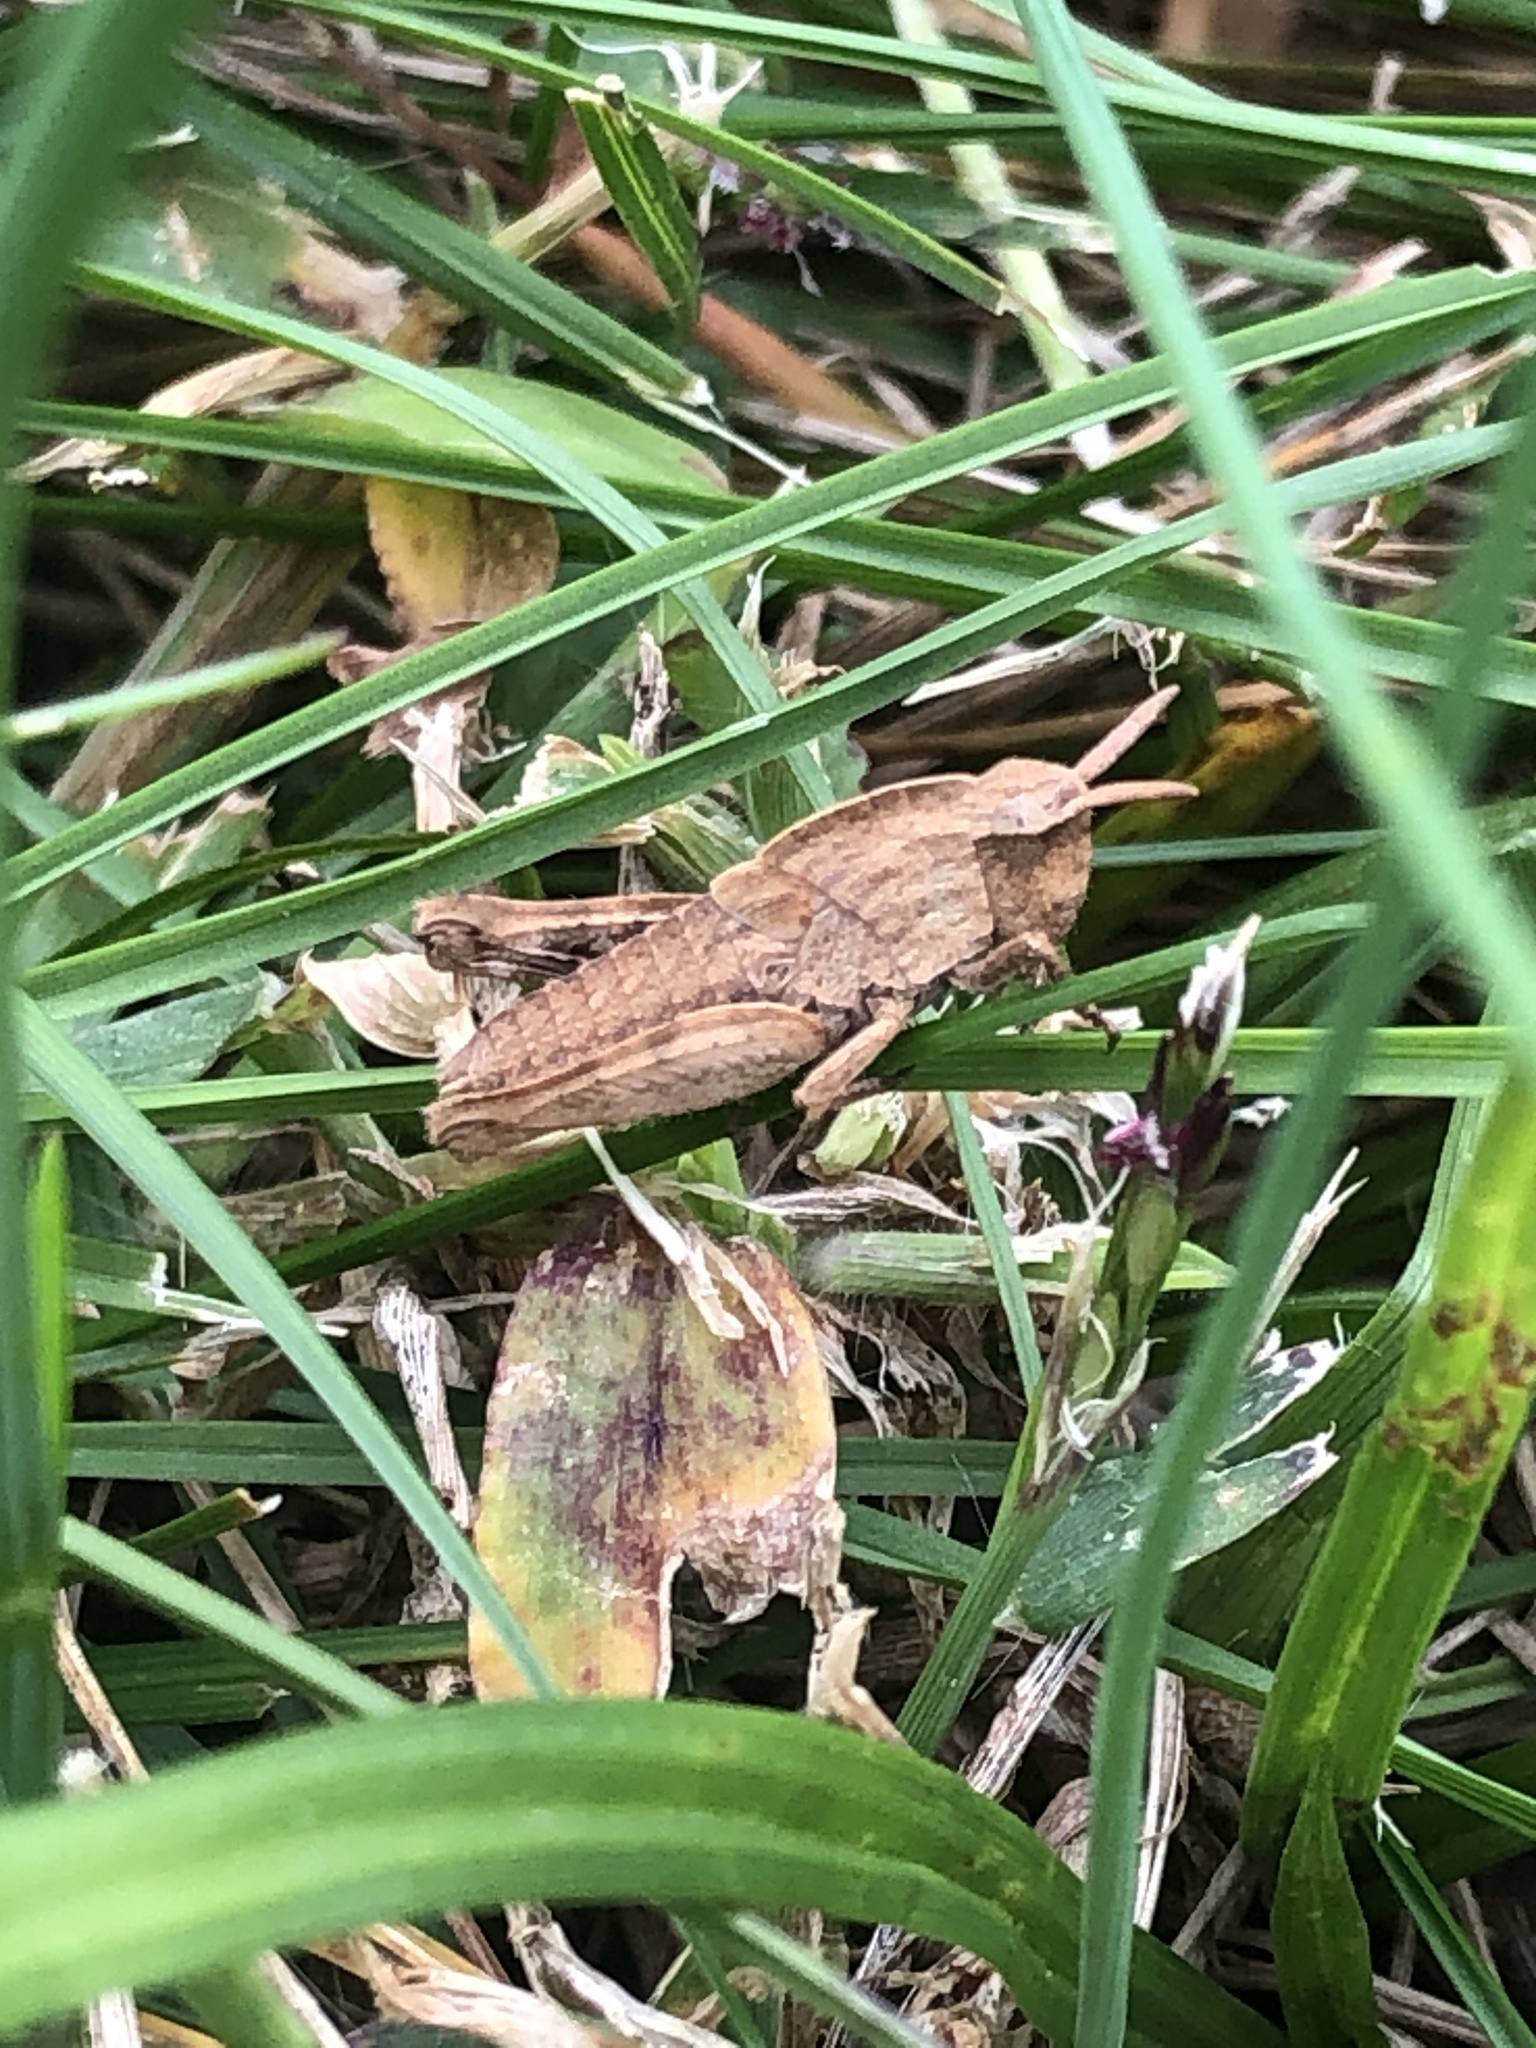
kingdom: Animalia
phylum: Arthropoda
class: Insecta
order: Orthoptera
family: Acrididae
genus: Chortophaga
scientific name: Chortophaga viridifasciata
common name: Green-striped grasshopper
